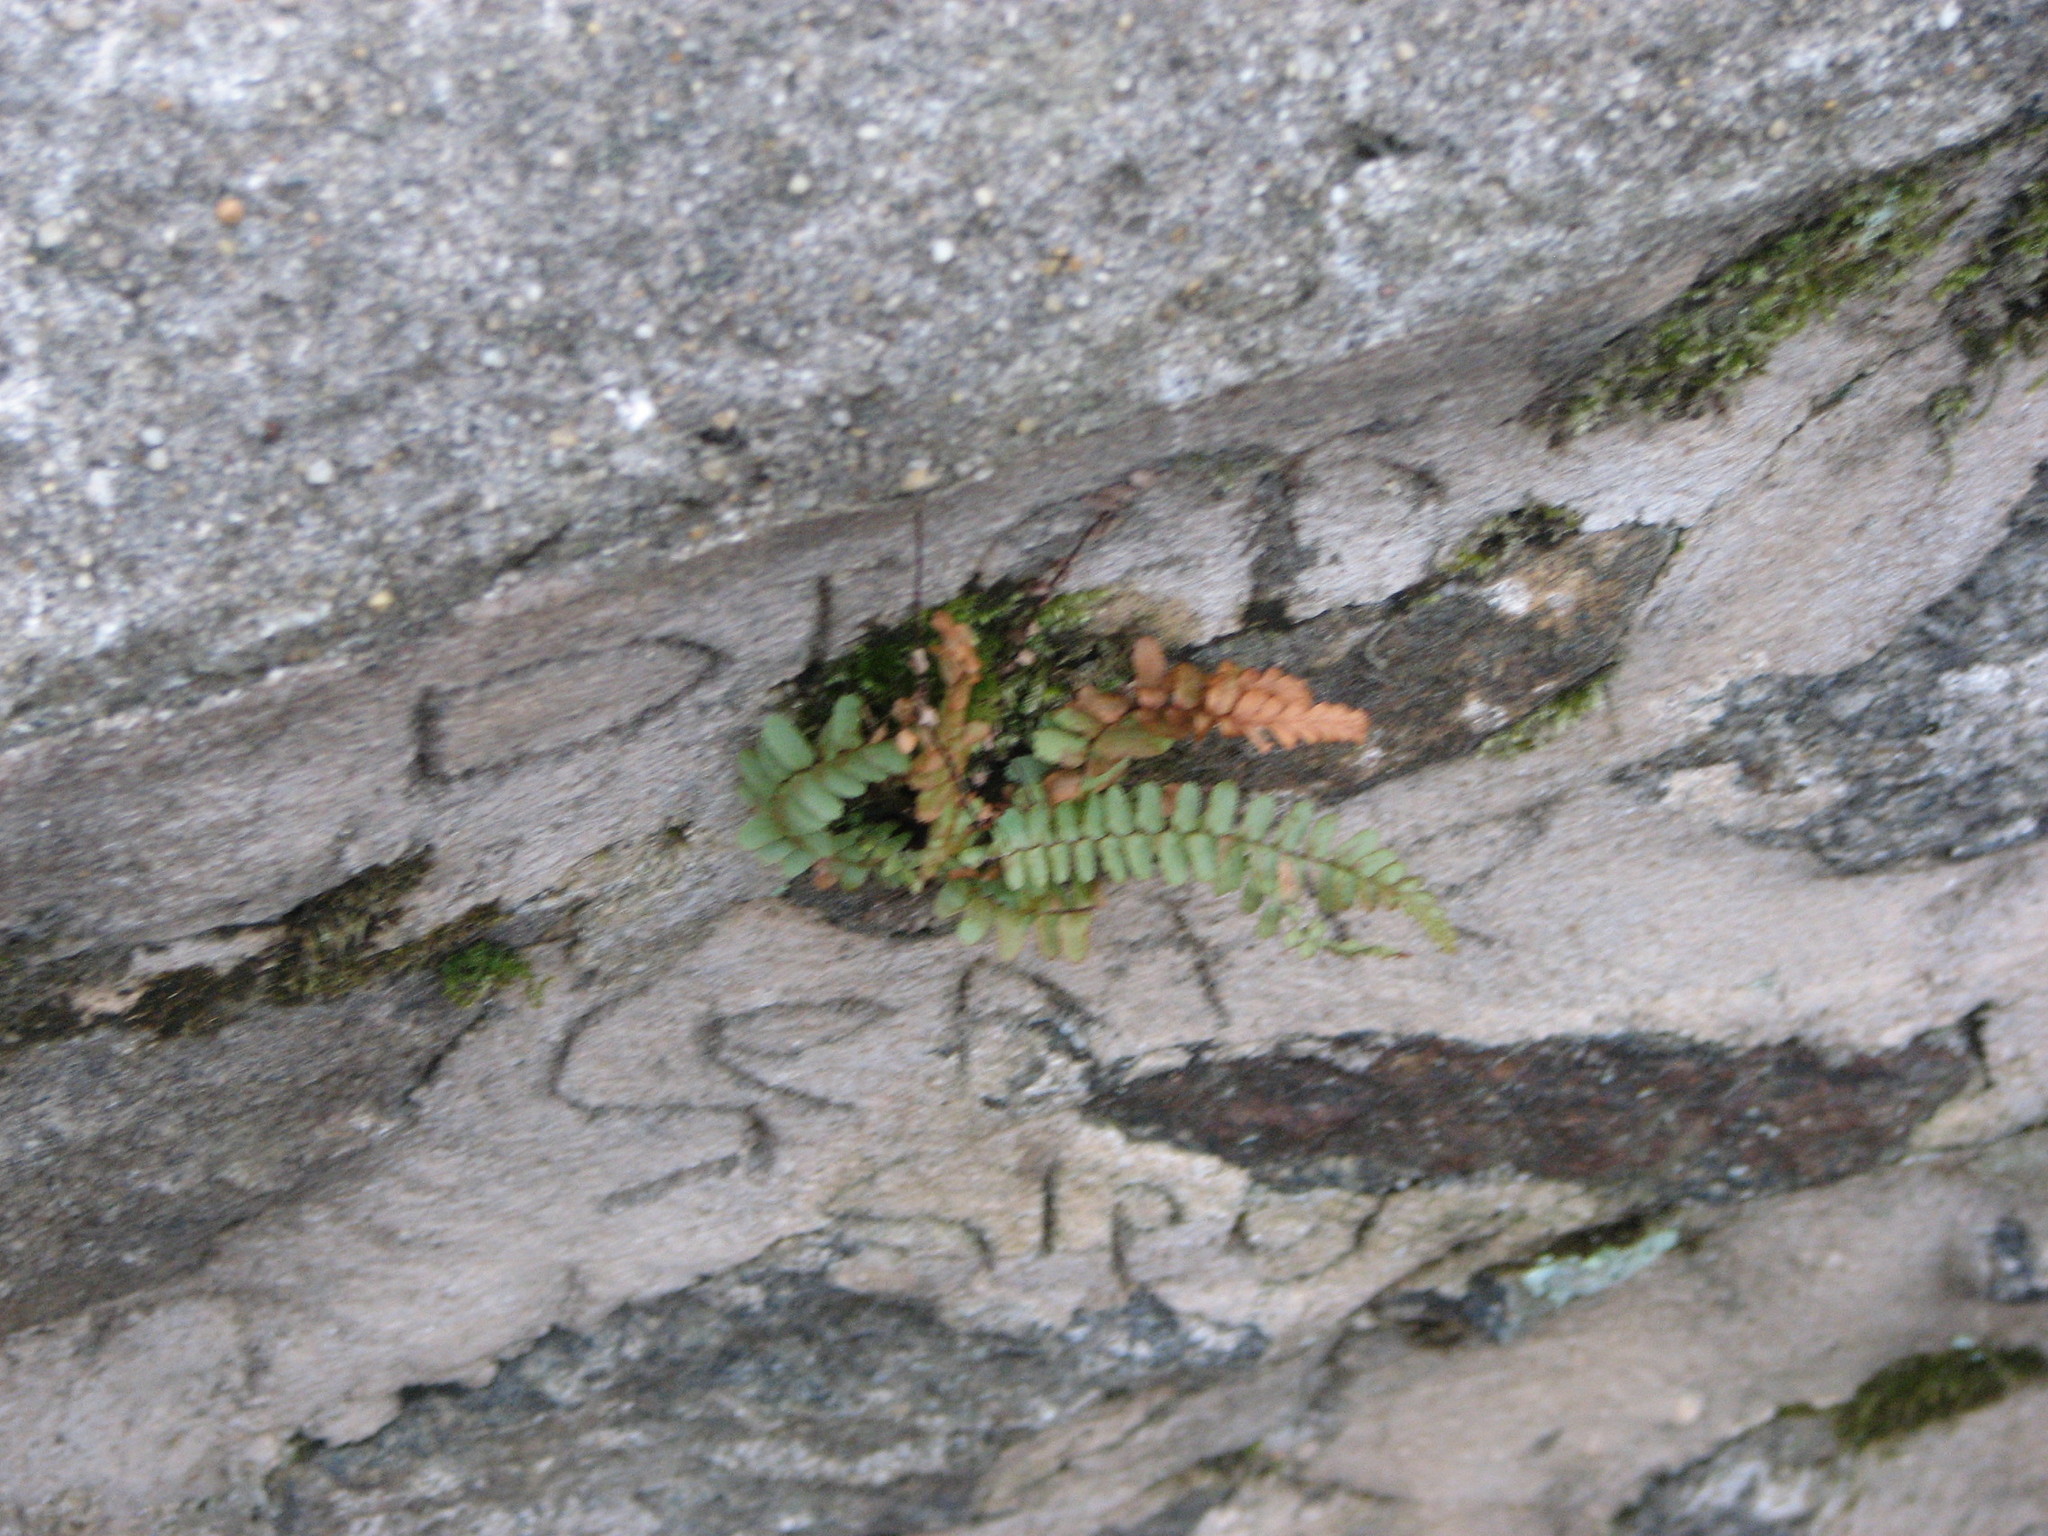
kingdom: Plantae
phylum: Tracheophyta
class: Polypodiopsida
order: Polypodiales
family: Aspleniaceae
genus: Asplenium
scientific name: Asplenium platyneuron
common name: Ebony spleenwort
